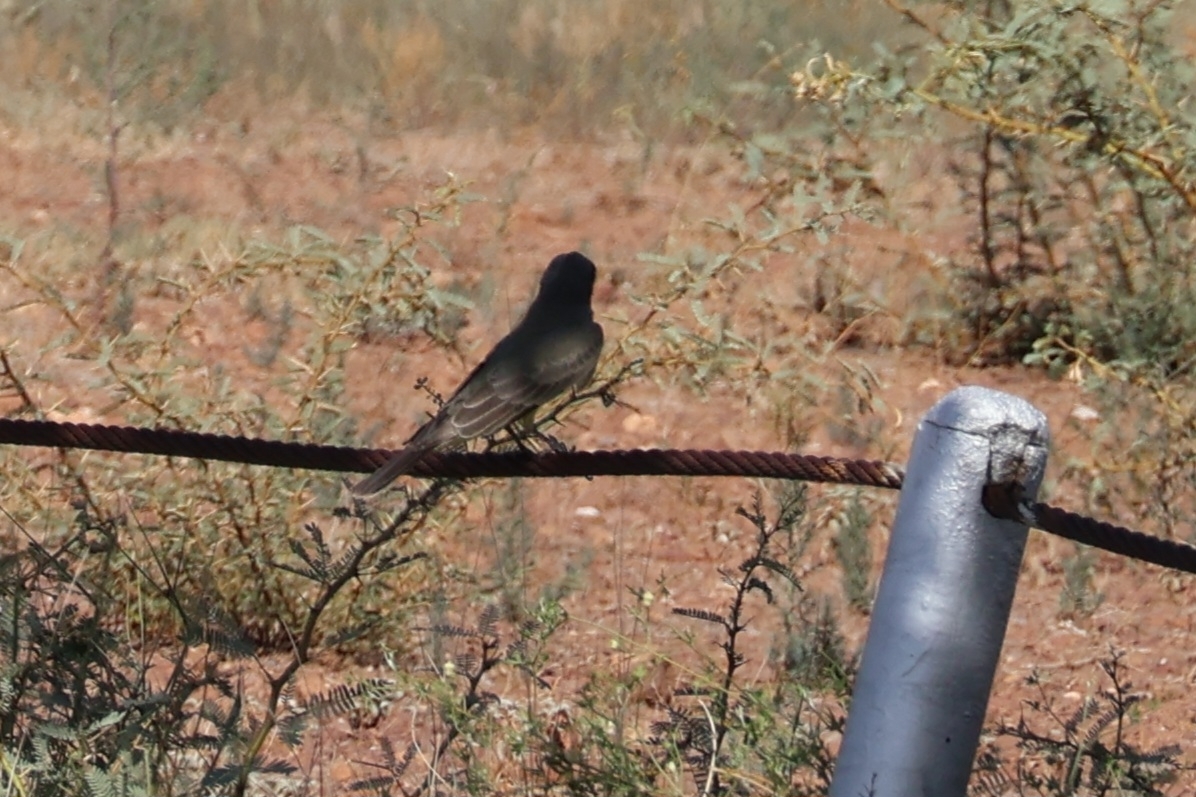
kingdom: Animalia
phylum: Chordata
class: Aves
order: Passeriformes
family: Tyrannidae
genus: Sayornis
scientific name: Sayornis saya
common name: Say's phoebe
